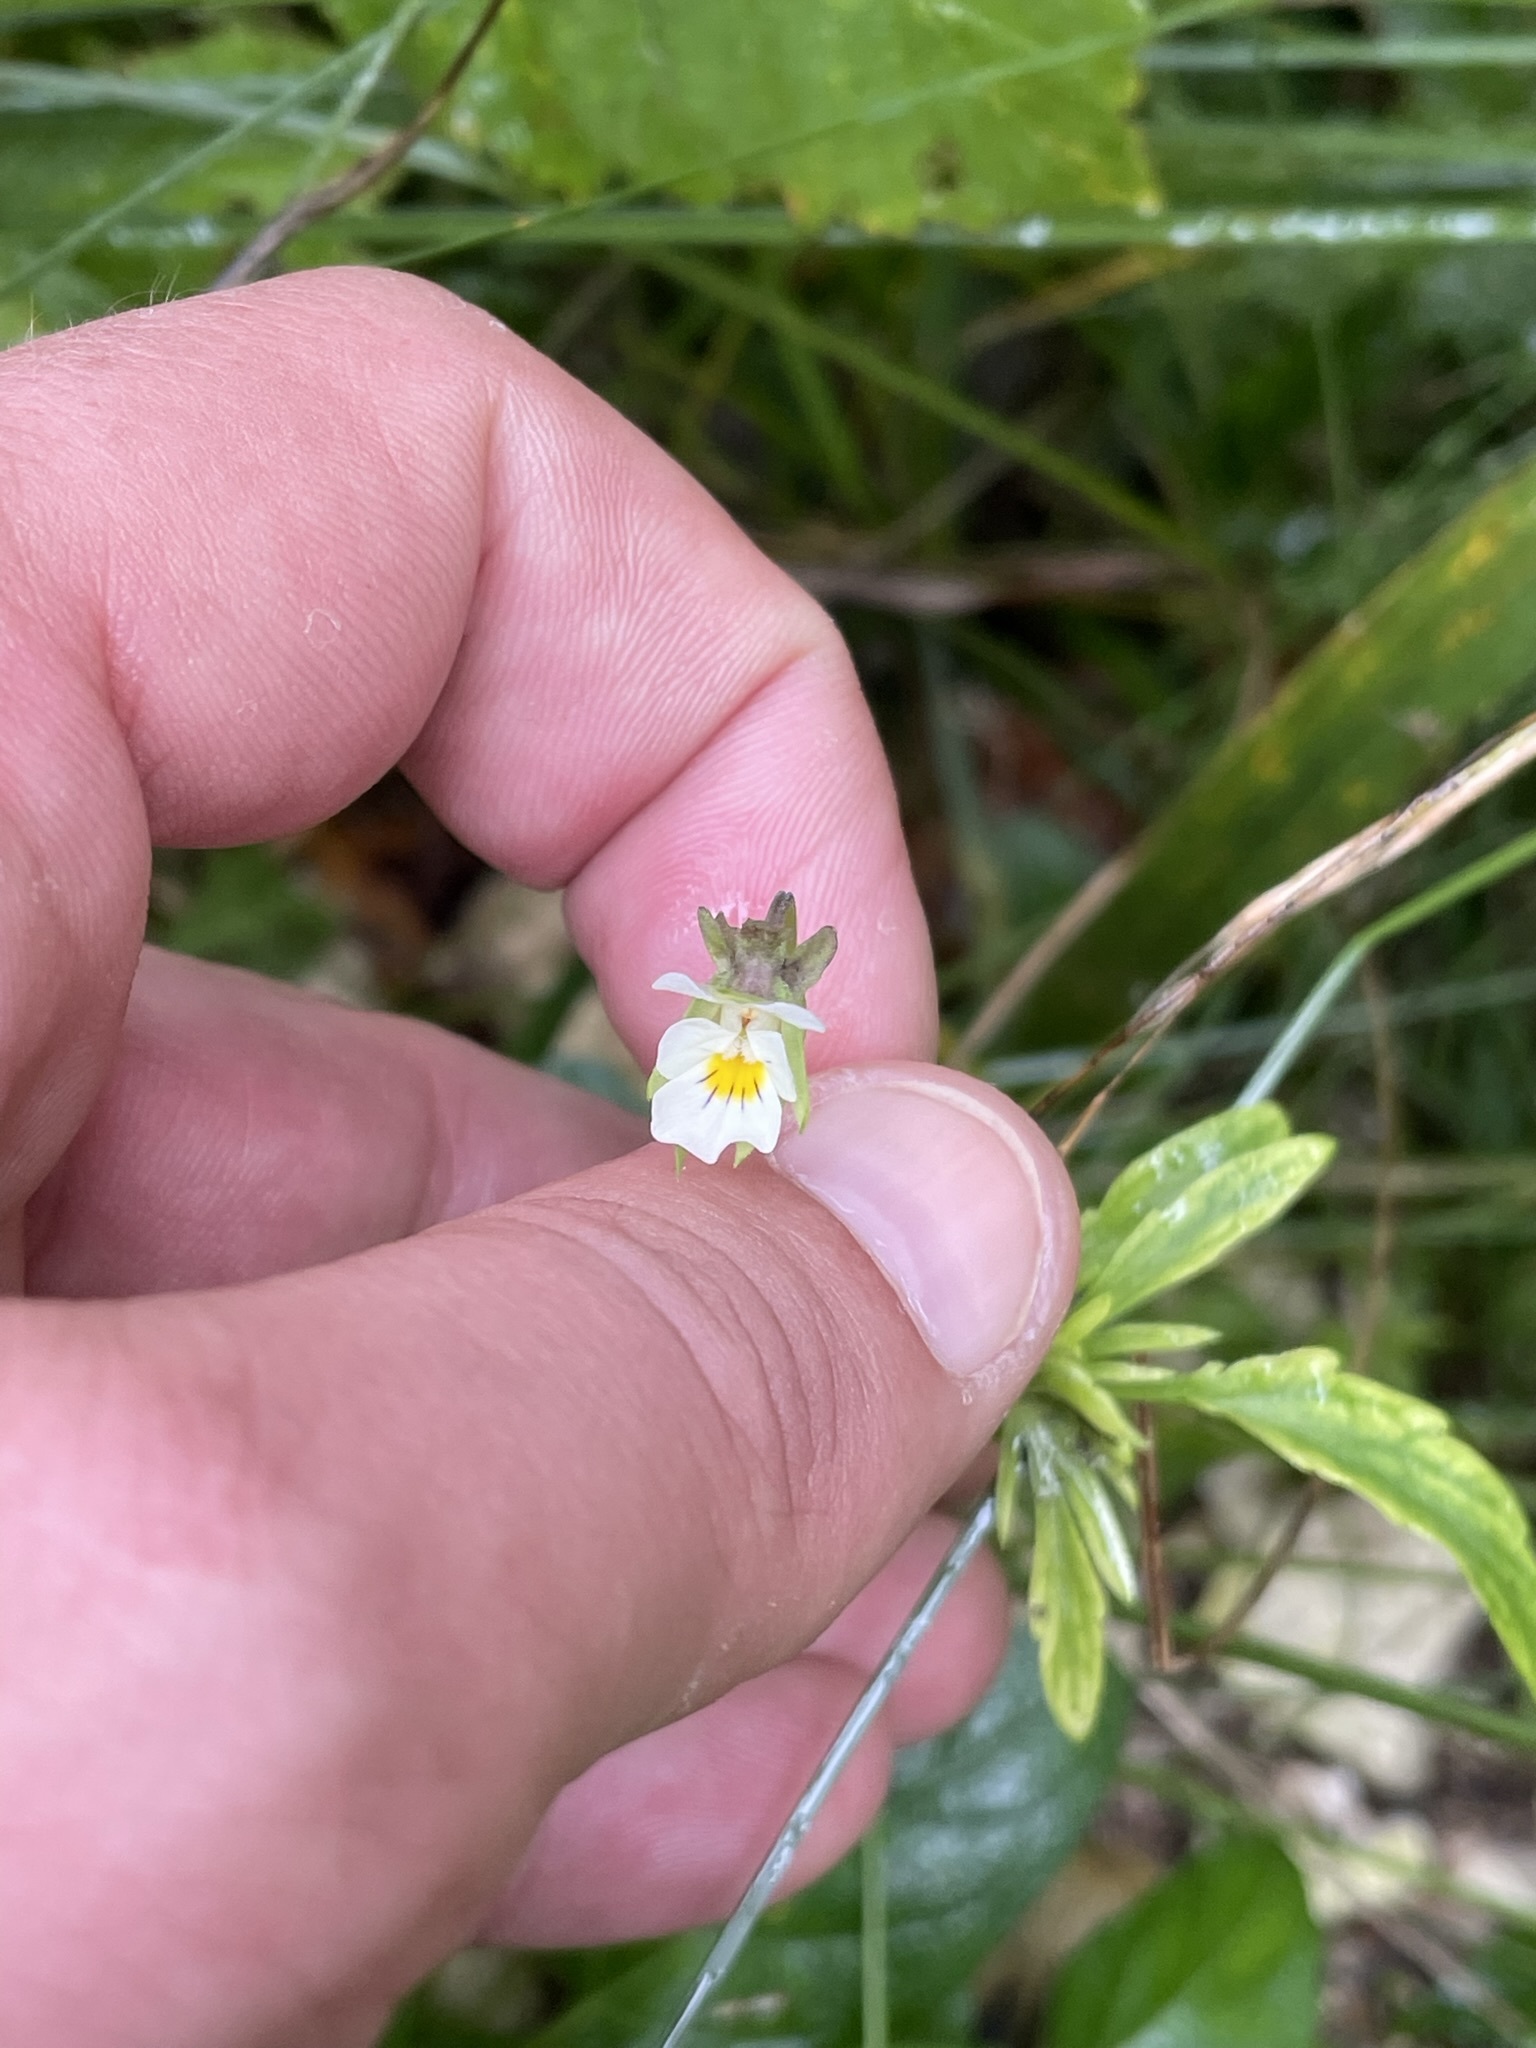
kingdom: Plantae
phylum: Tracheophyta
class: Magnoliopsida
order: Malpighiales
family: Violaceae
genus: Viola
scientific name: Viola arvensis
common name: Field pansy
